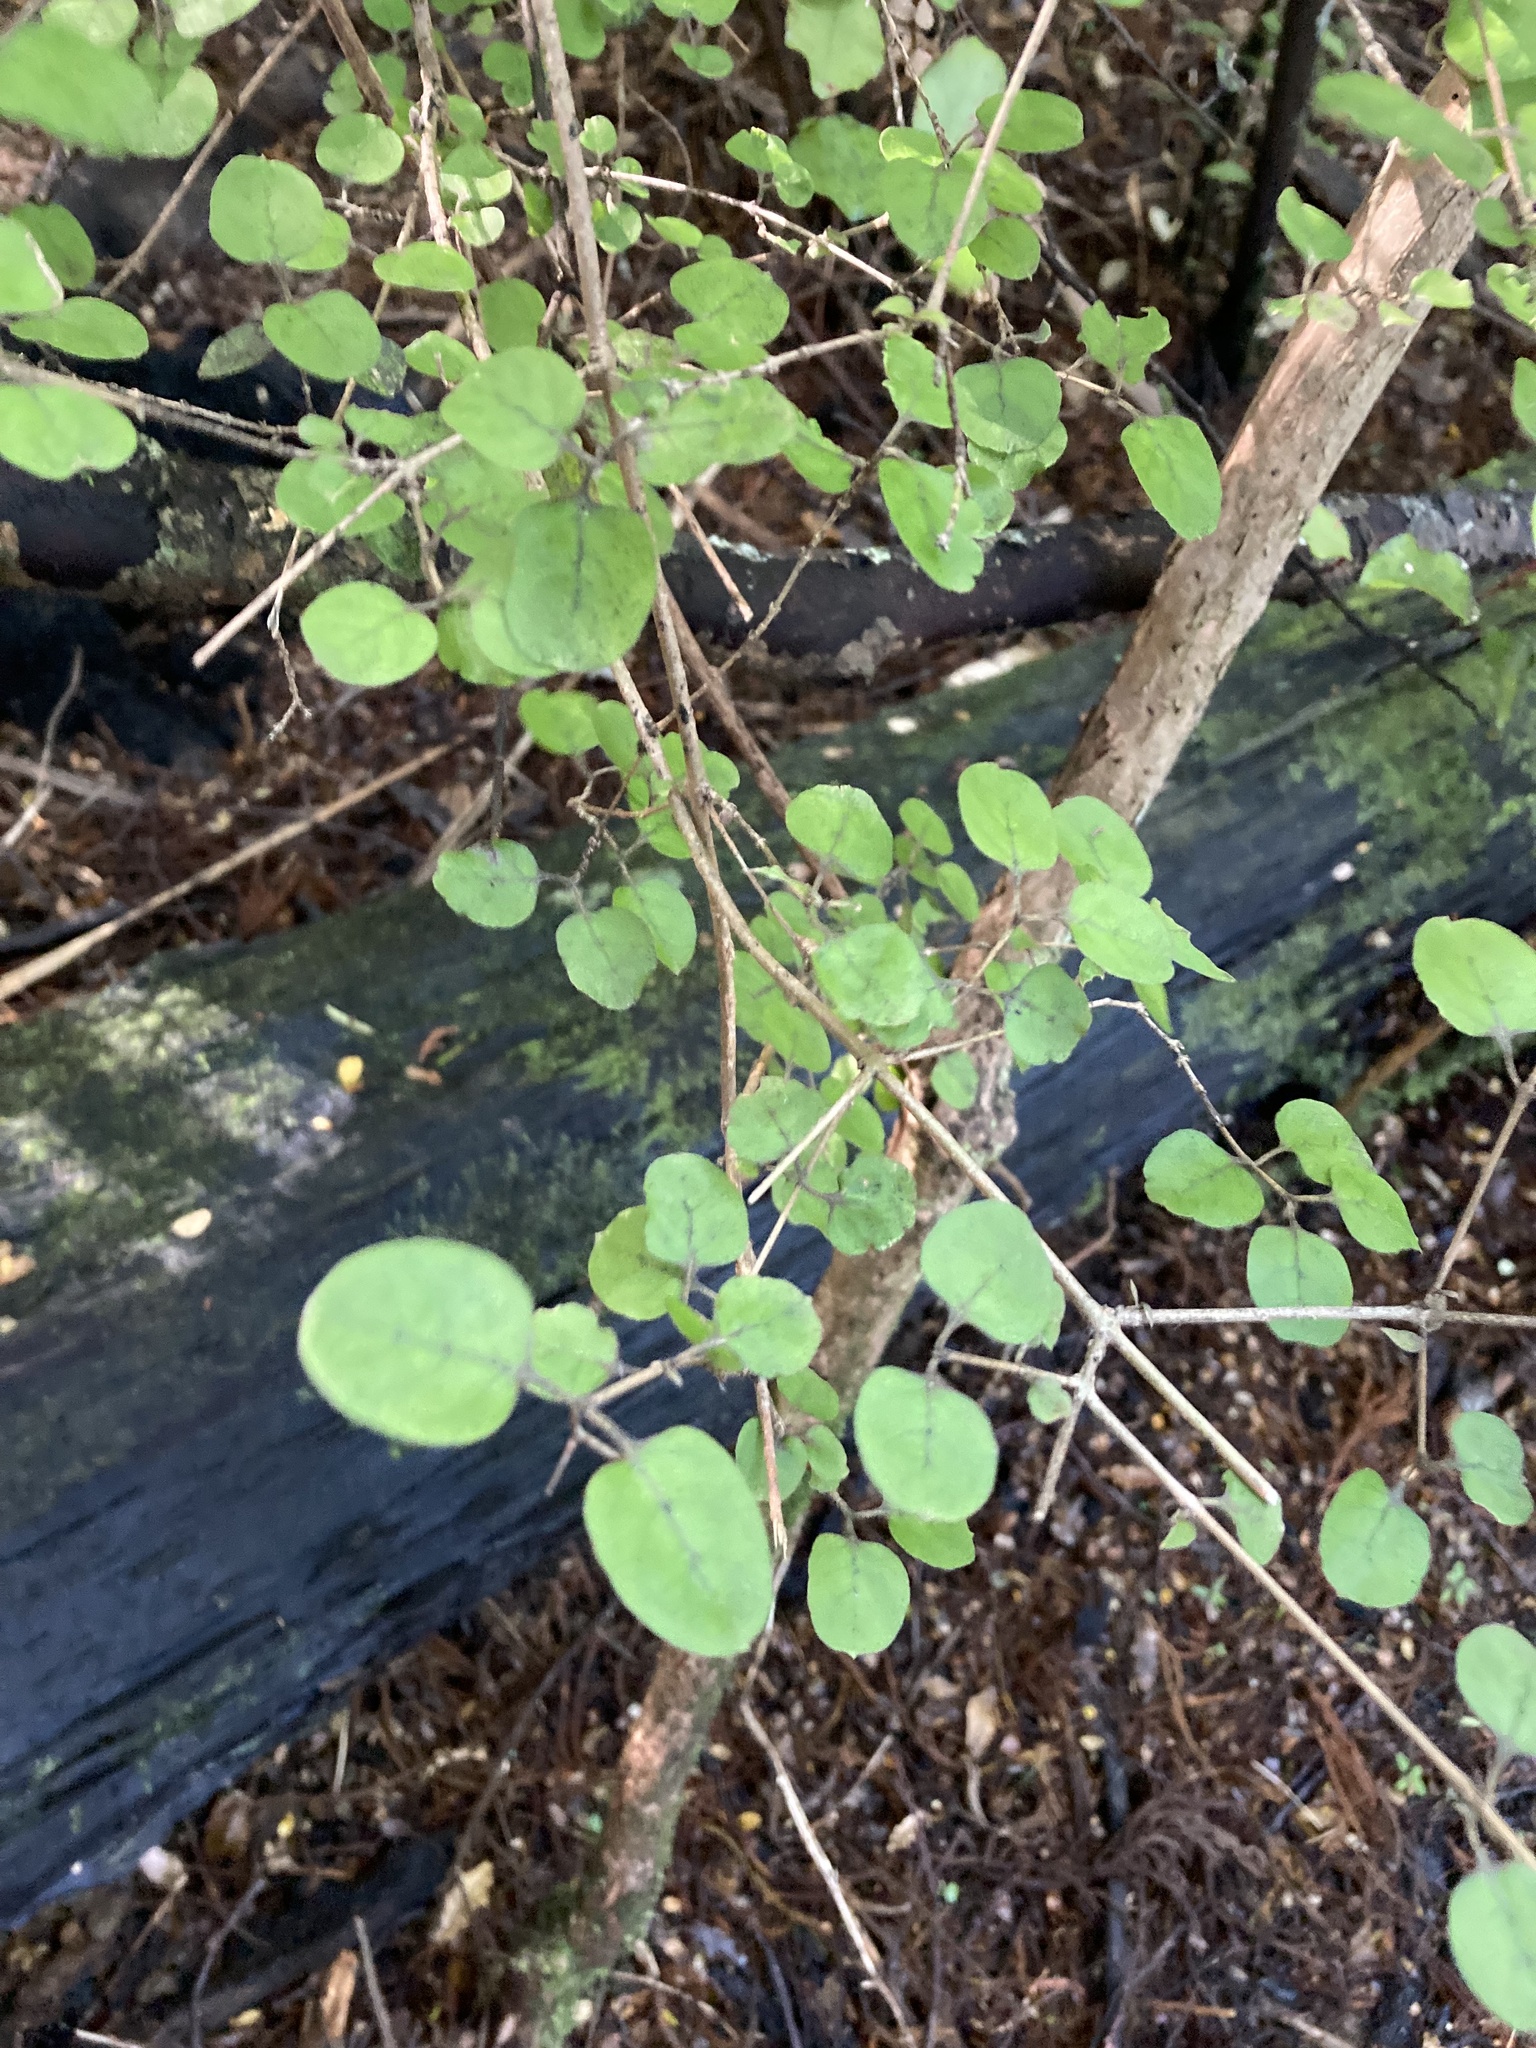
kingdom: Plantae
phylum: Tracheophyta
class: Magnoliopsida
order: Gentianales
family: Rubiaceae
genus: Coprosma
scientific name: Coprosma rotundifolia
